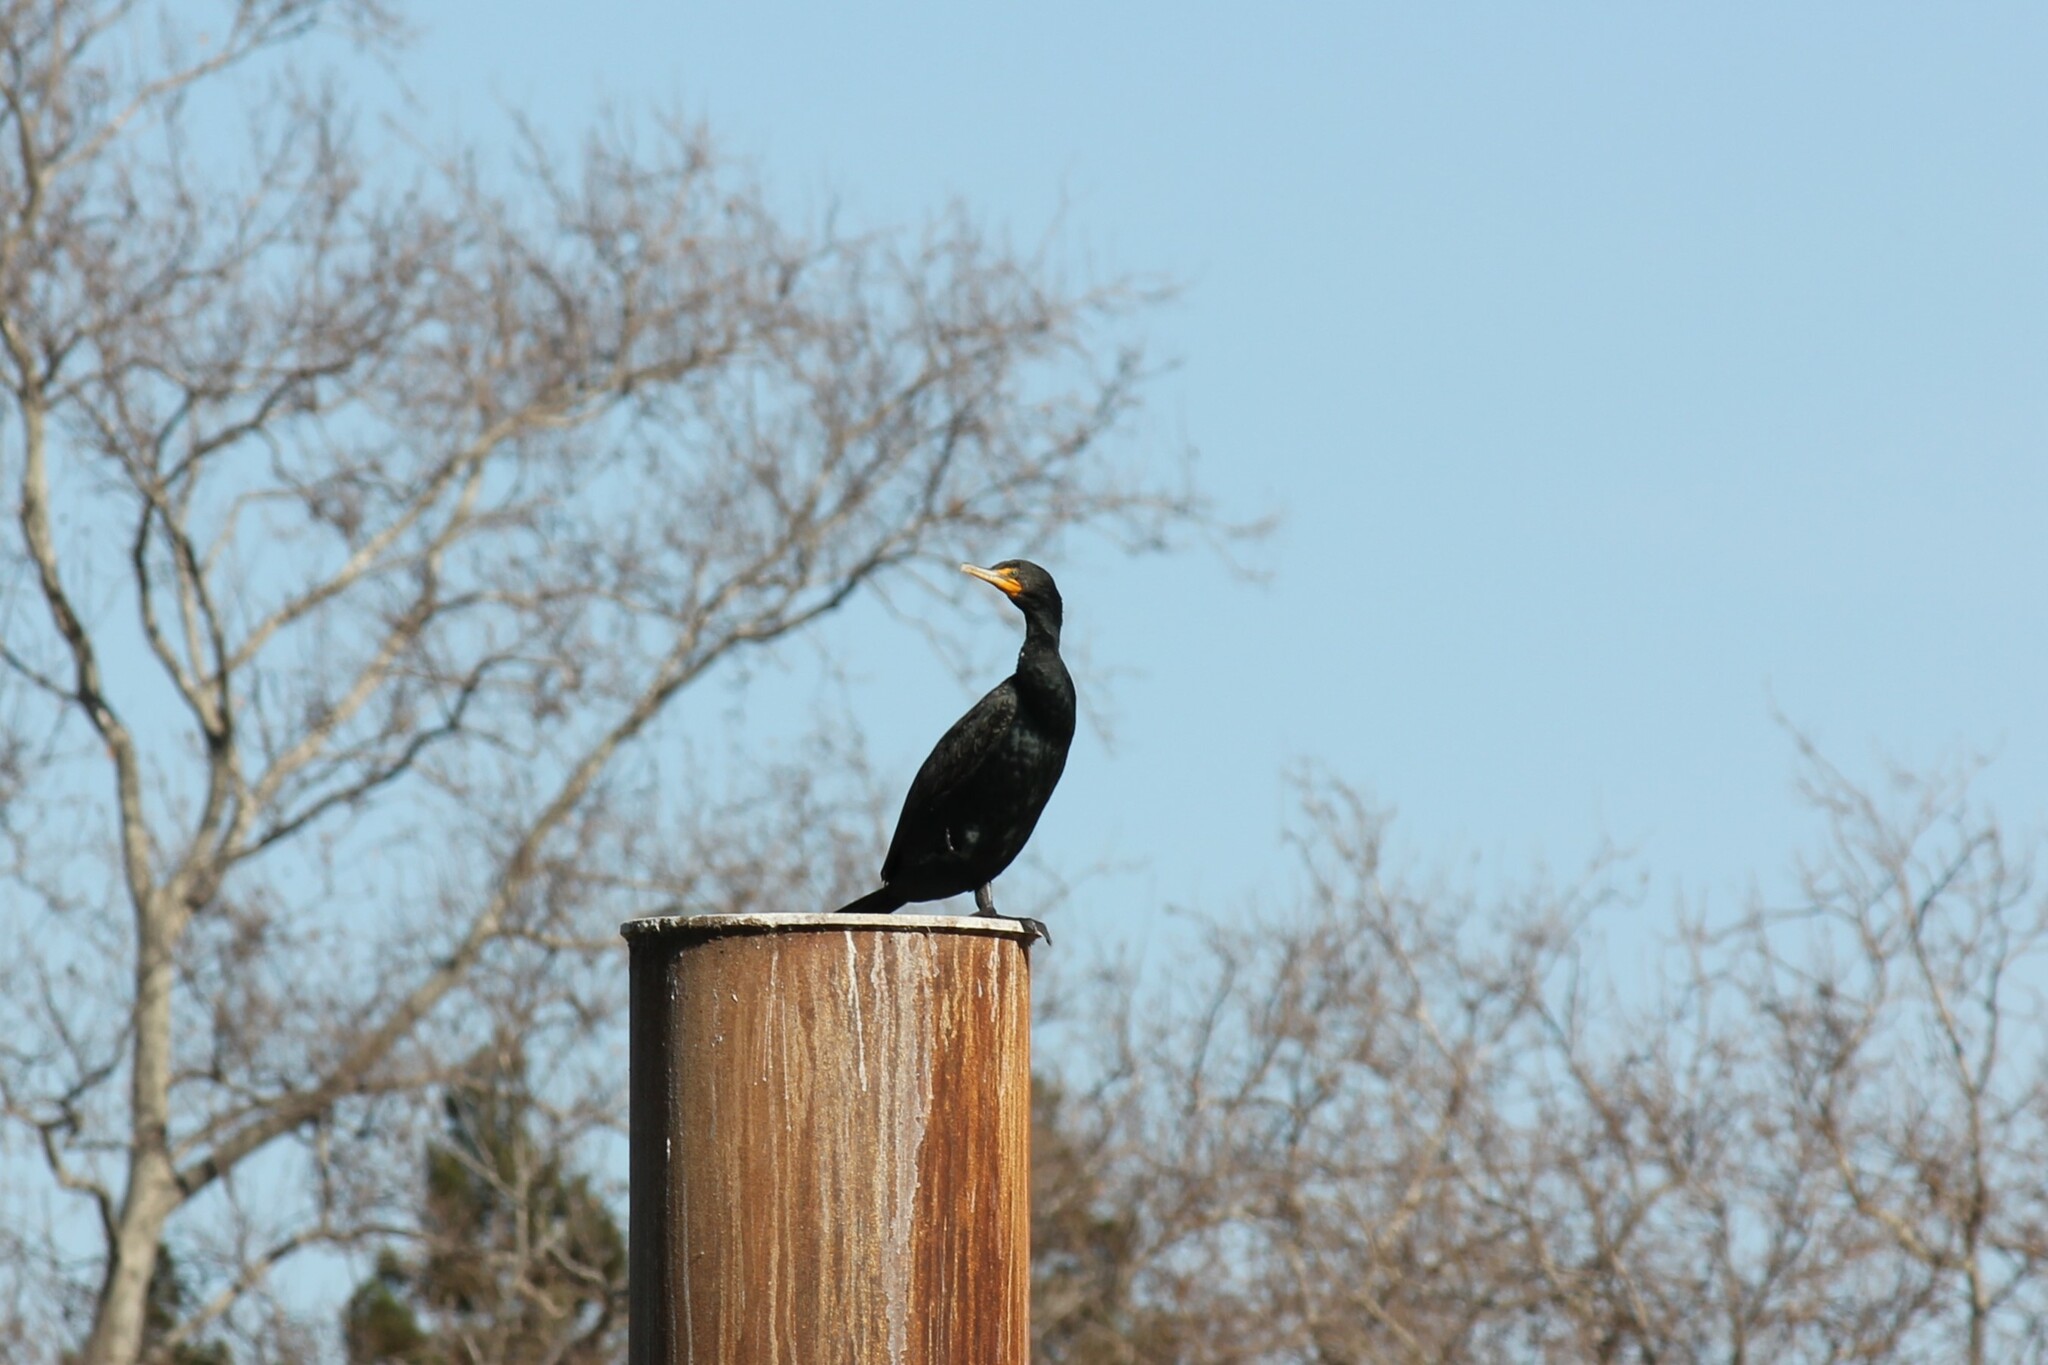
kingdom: Animalia
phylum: Chordata
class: Aves
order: Suliformes
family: Phalacrocoracidae
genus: Phalacrocorax
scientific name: Phalacrocorax auritus
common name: Double-crested cormorant
